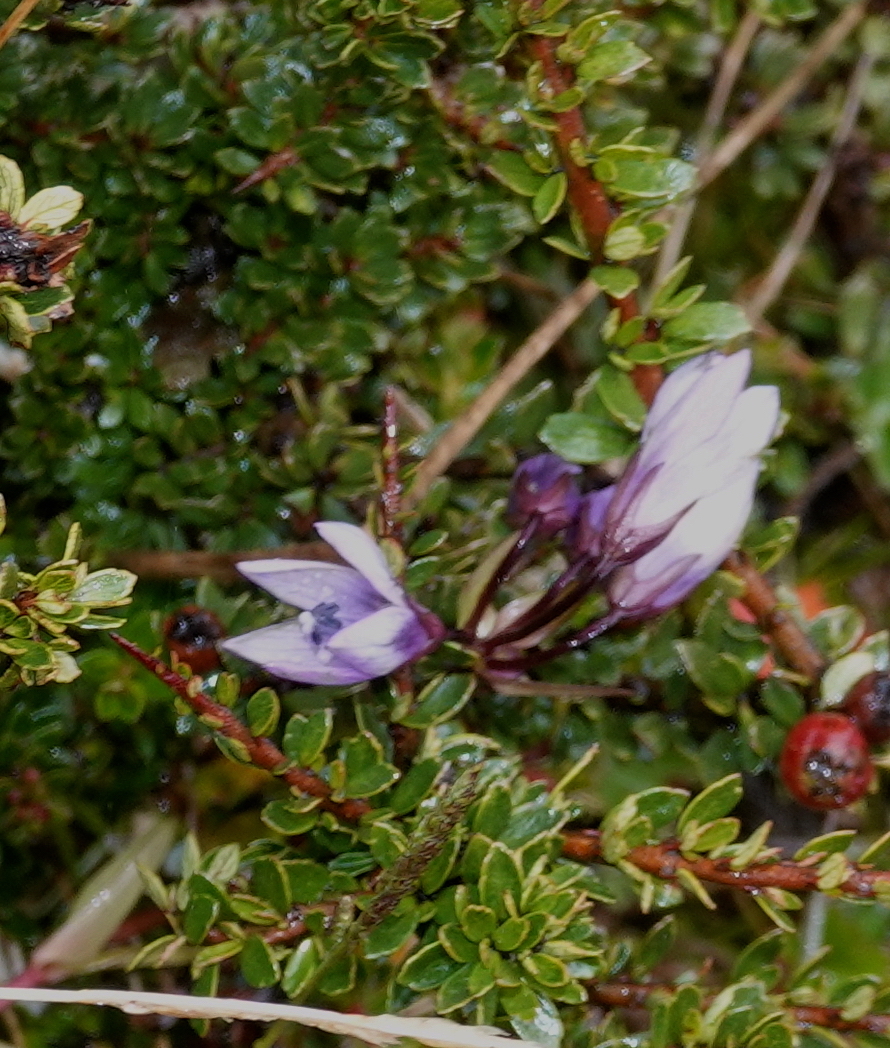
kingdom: Plantae
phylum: Tracheophyta
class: Magnoliopsida
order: Gentianales
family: Gentianaceae
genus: Gentianella
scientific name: Gentianella rapunculoides
